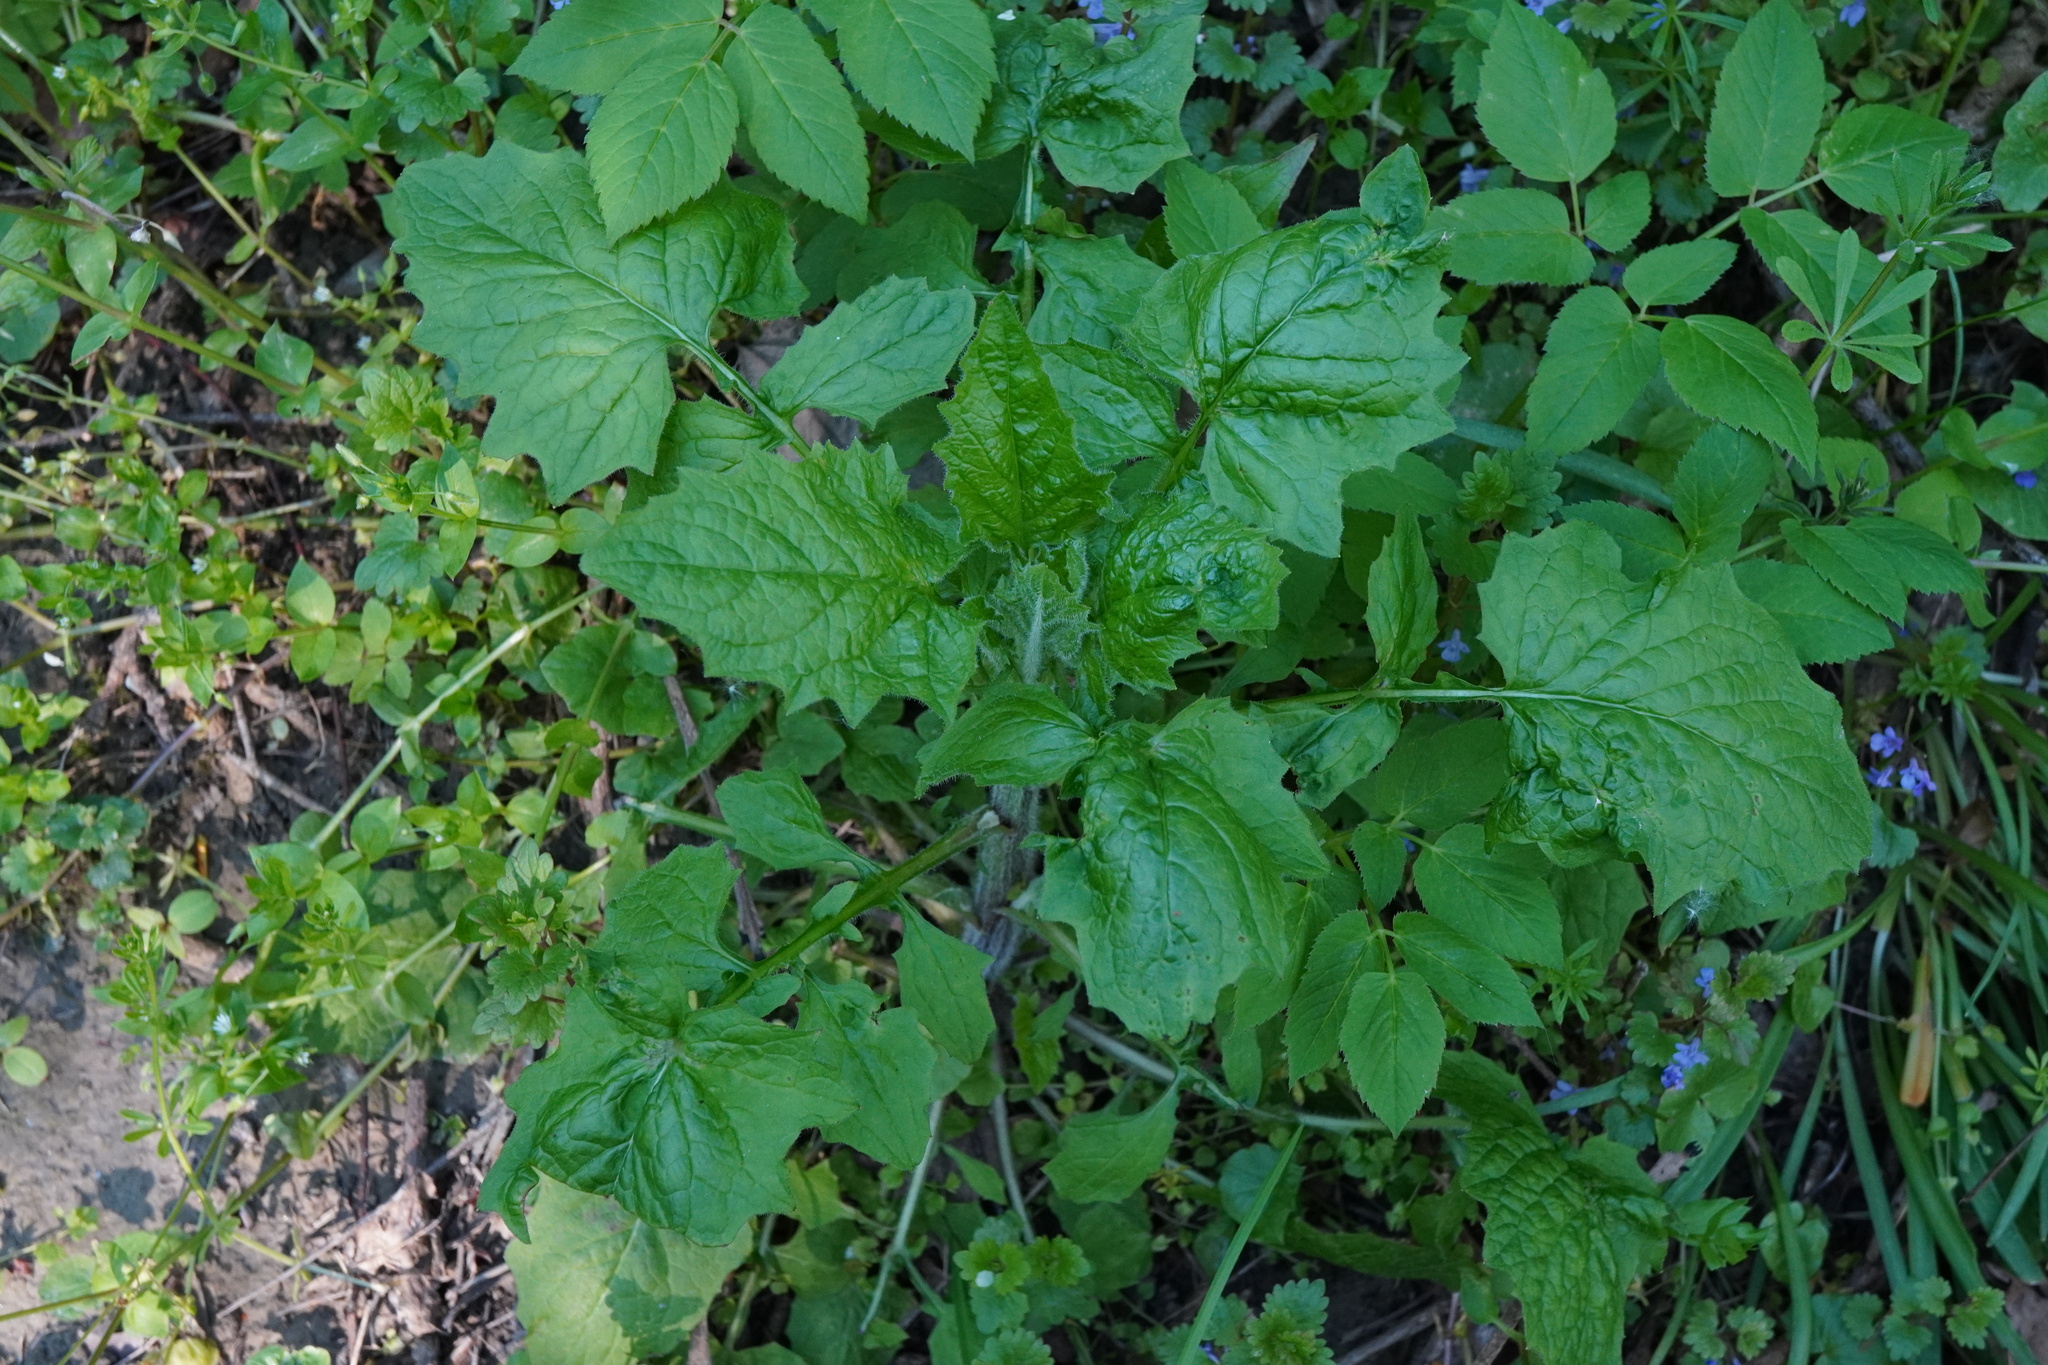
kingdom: Plantae
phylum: Tracheophyta
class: Magnoliopsida
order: Asterales
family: Asteraceae
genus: Lapsana
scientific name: Lapsana communis
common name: Nipplewort
